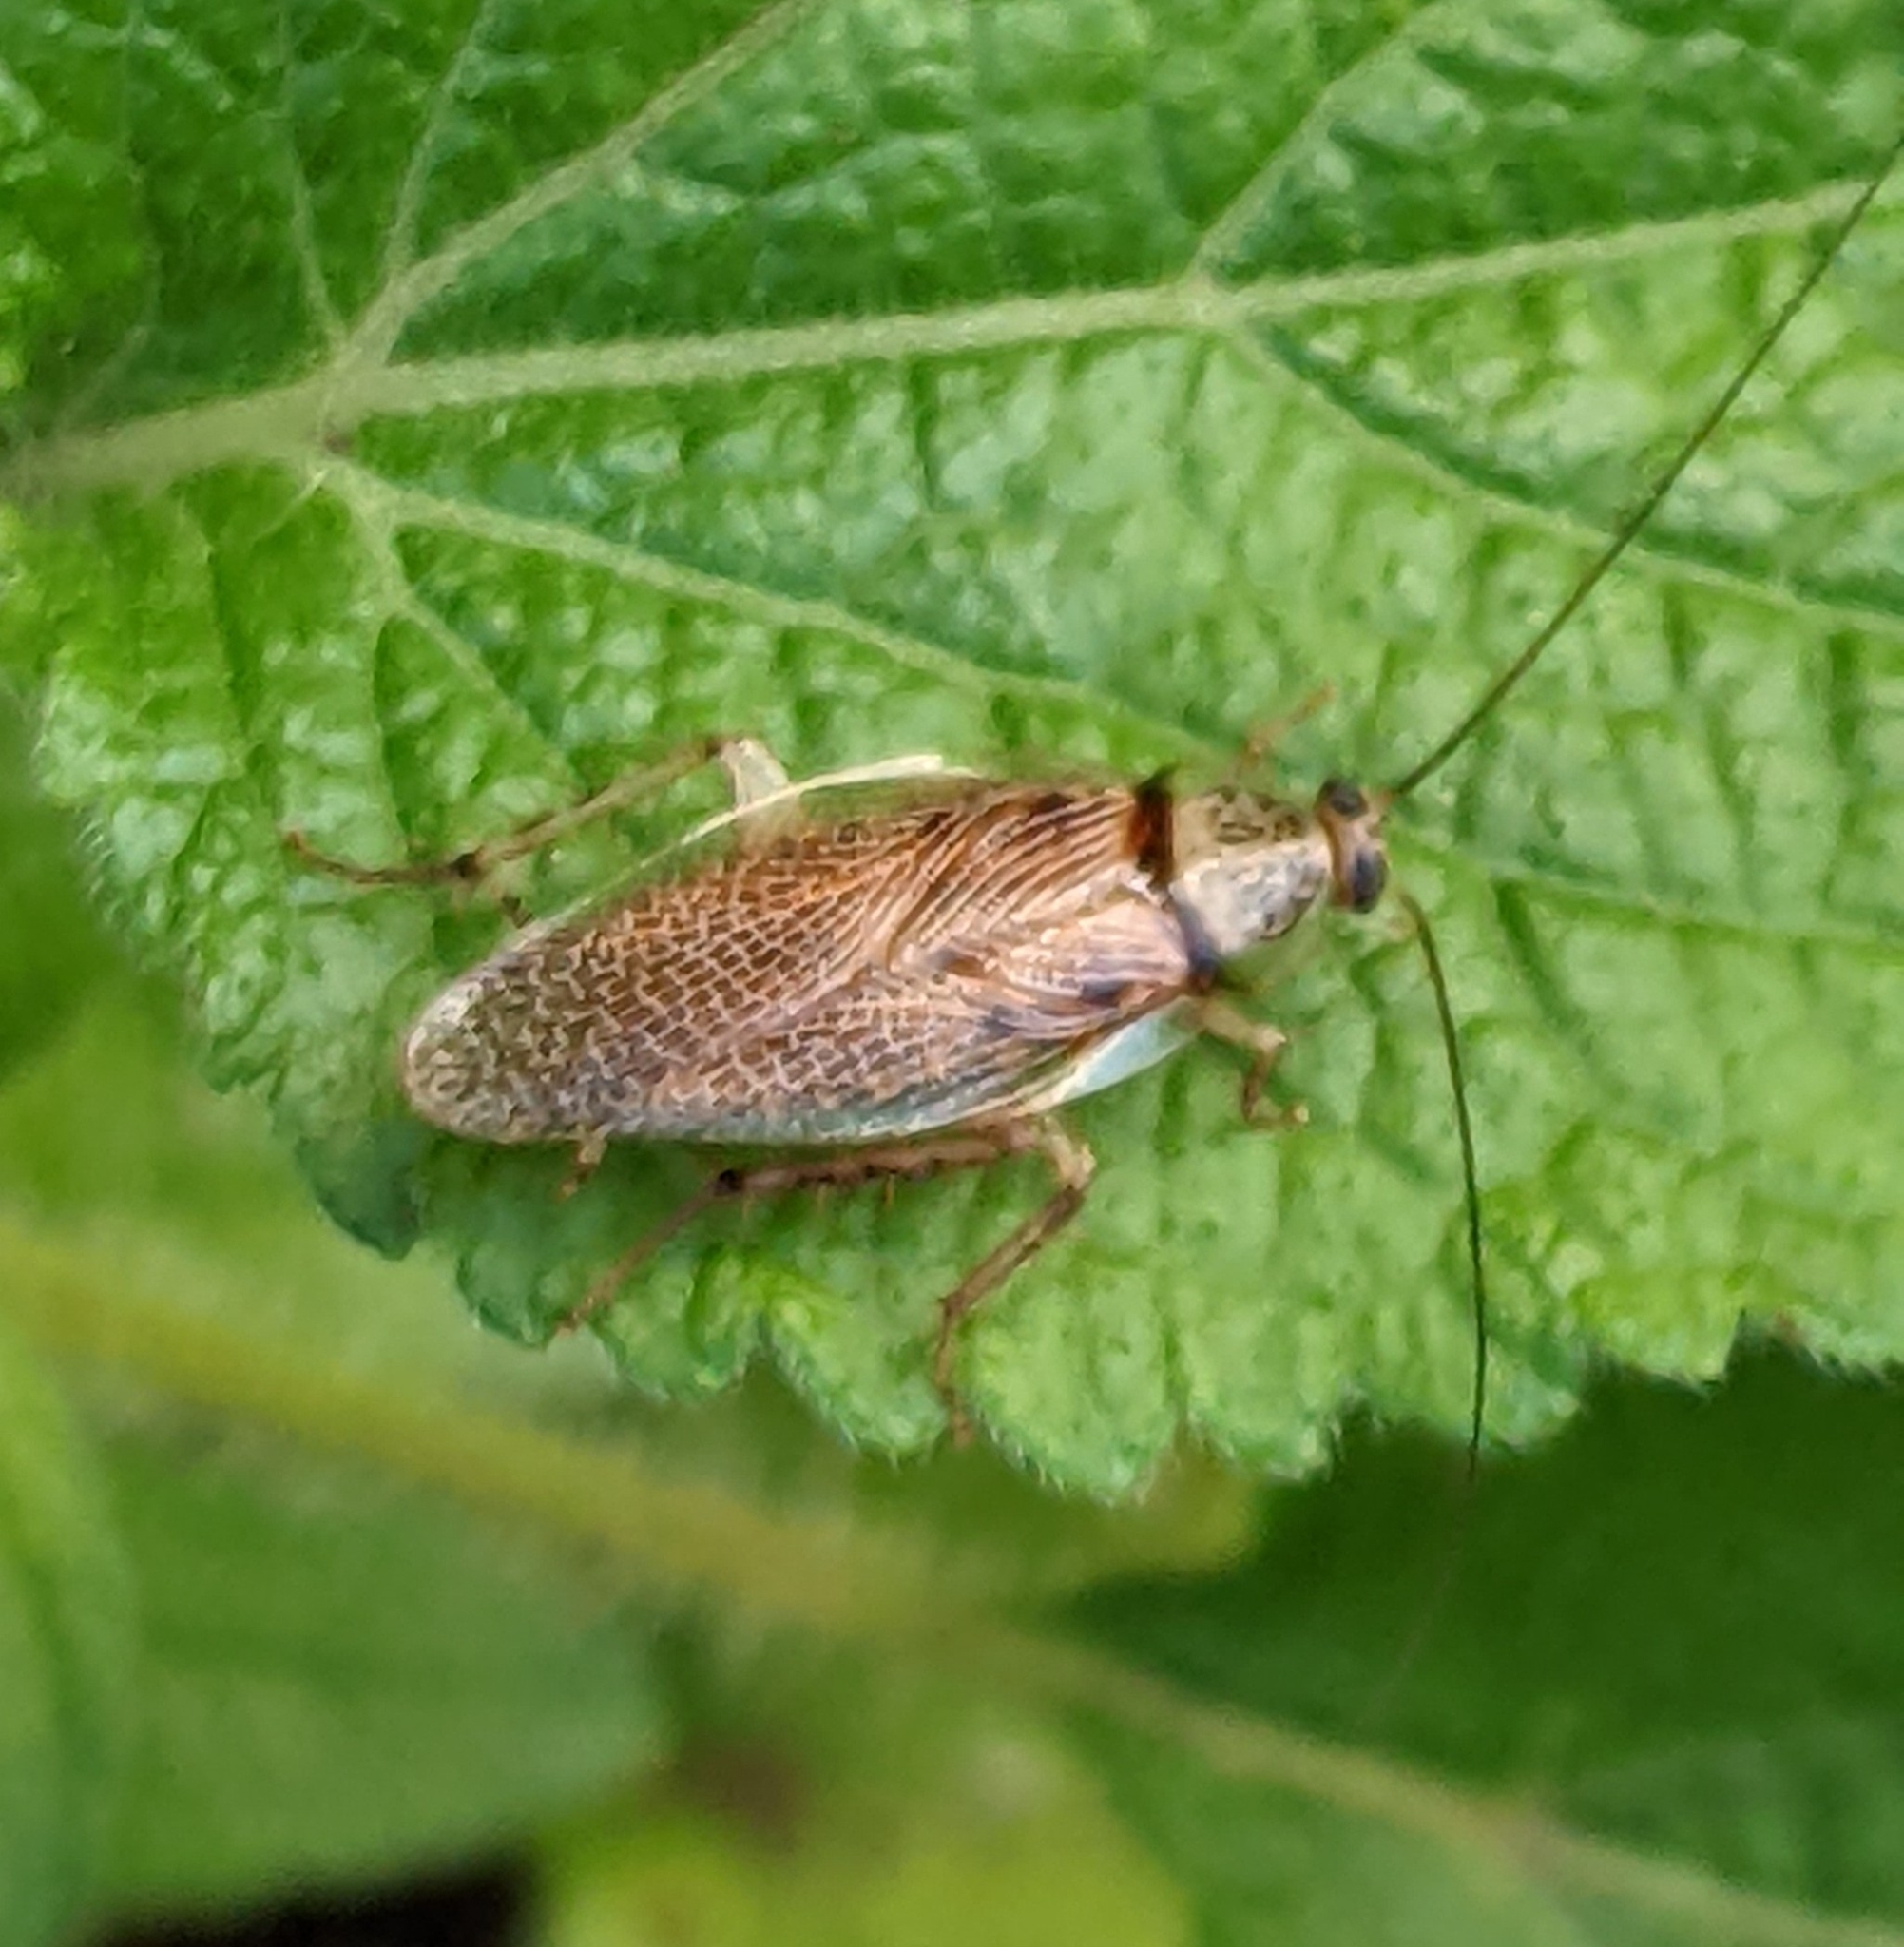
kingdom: Animalia
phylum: Arthropoda
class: Insecta
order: Blattodea
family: Ectobiidae
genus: Balta
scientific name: Balta notulata
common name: Cockroach
